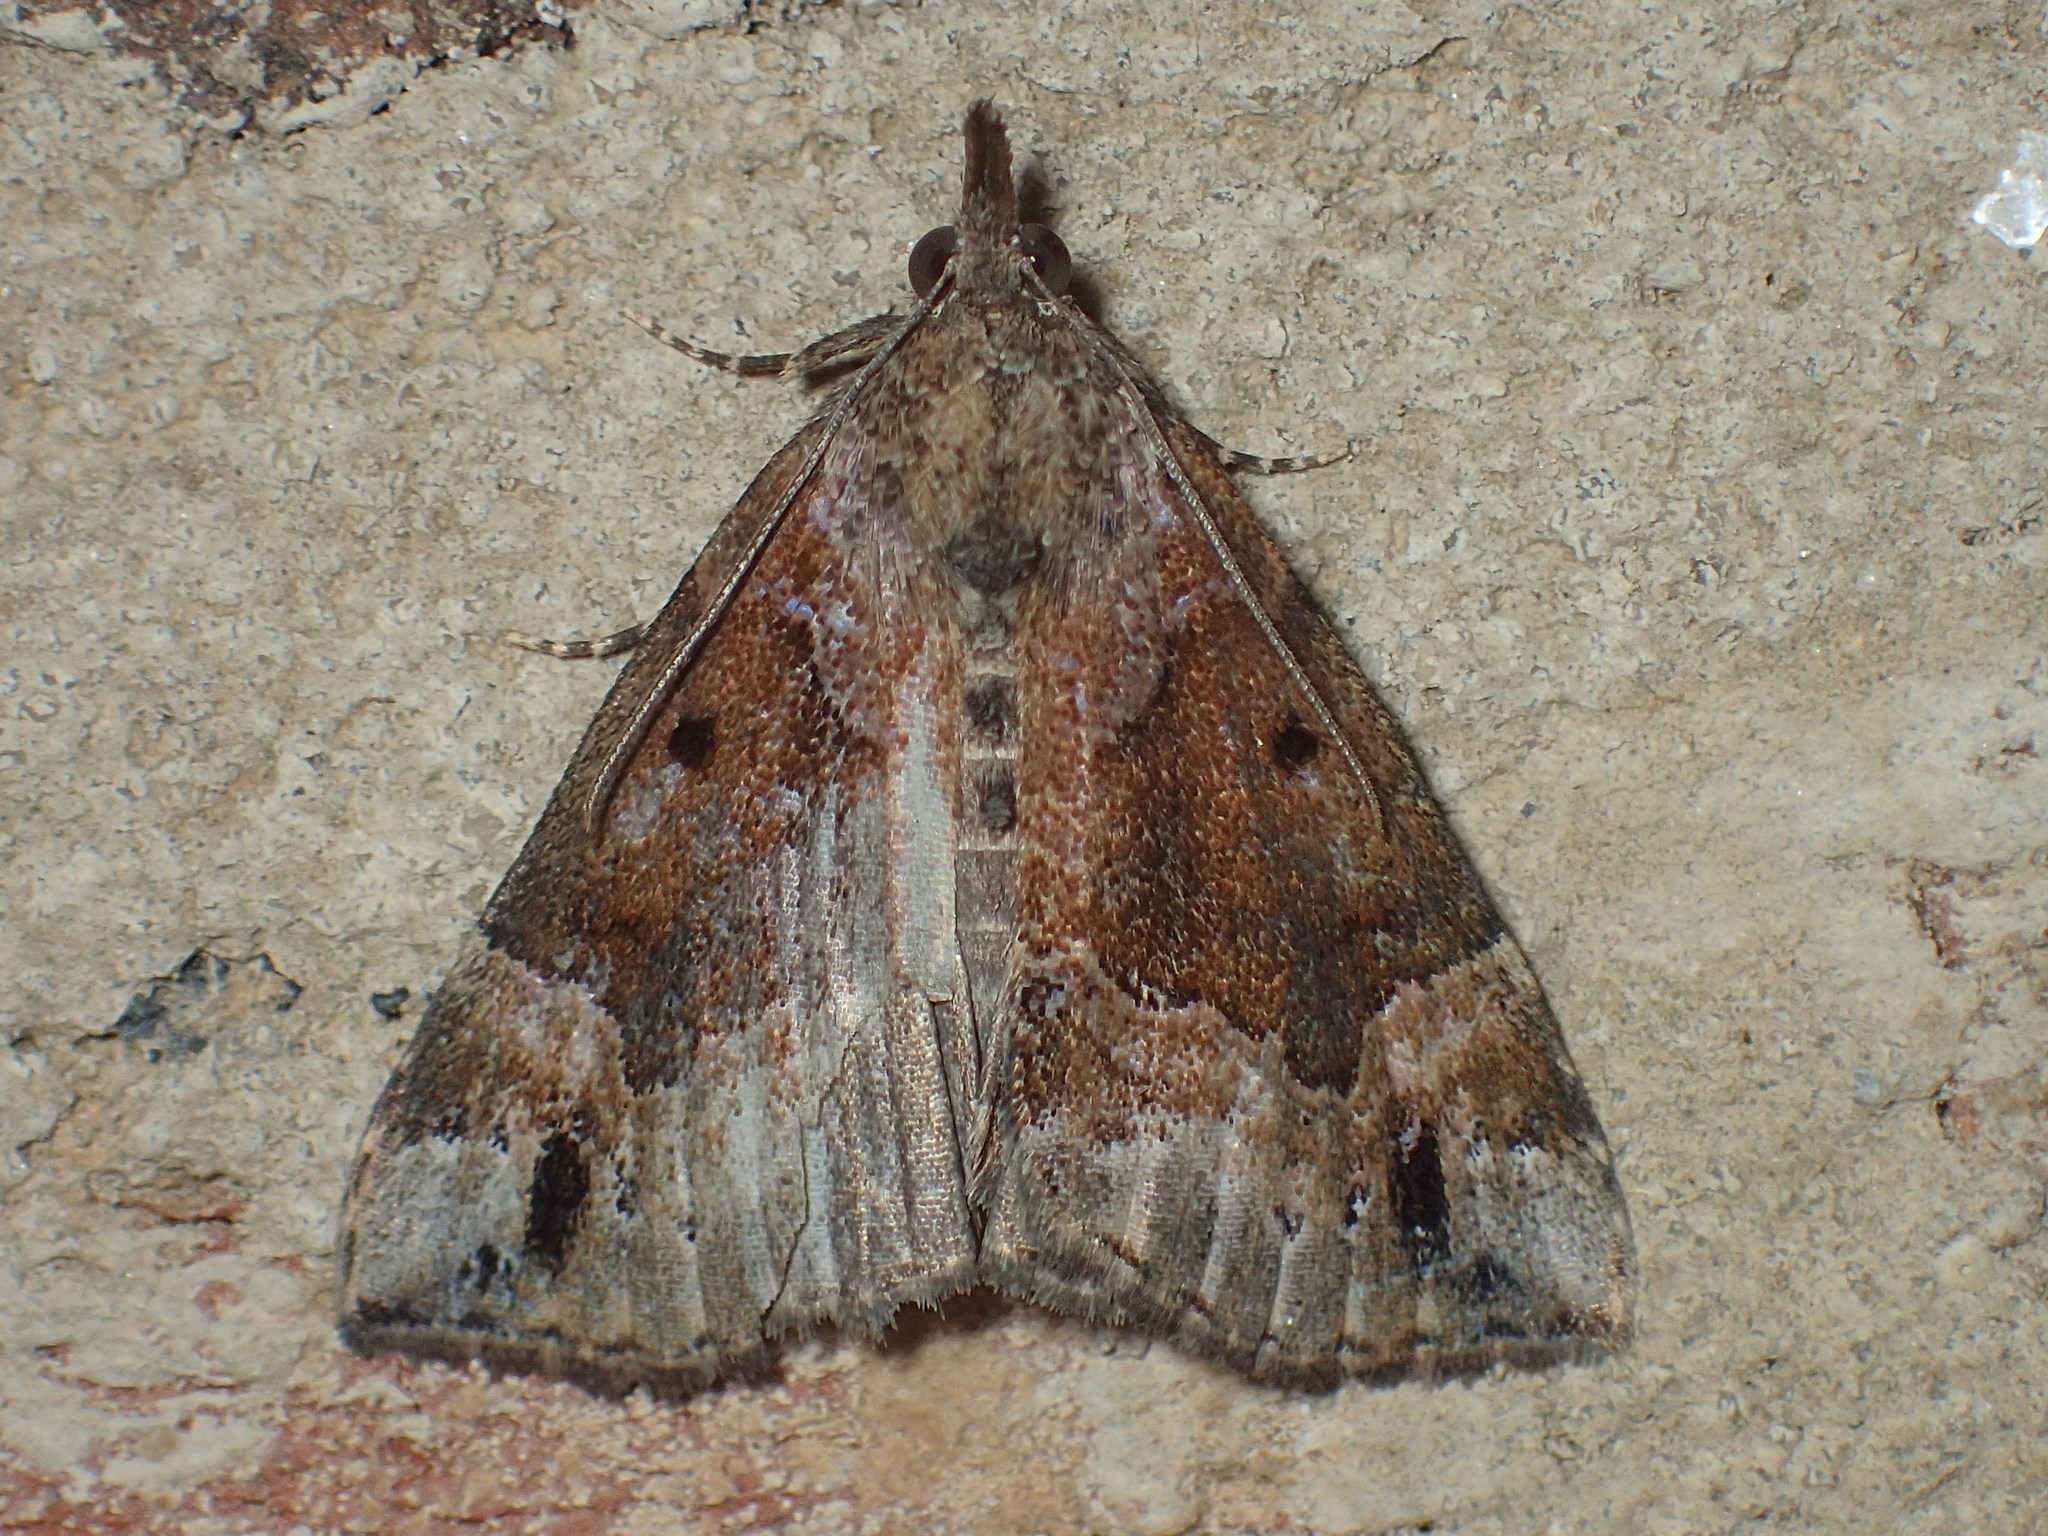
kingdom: Animalia
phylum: Arthropoda
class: Insecta
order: Lepidoptera
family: Erebidae
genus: Hypena
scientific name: Hypena palparia
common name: Mottled bomolocha moth
